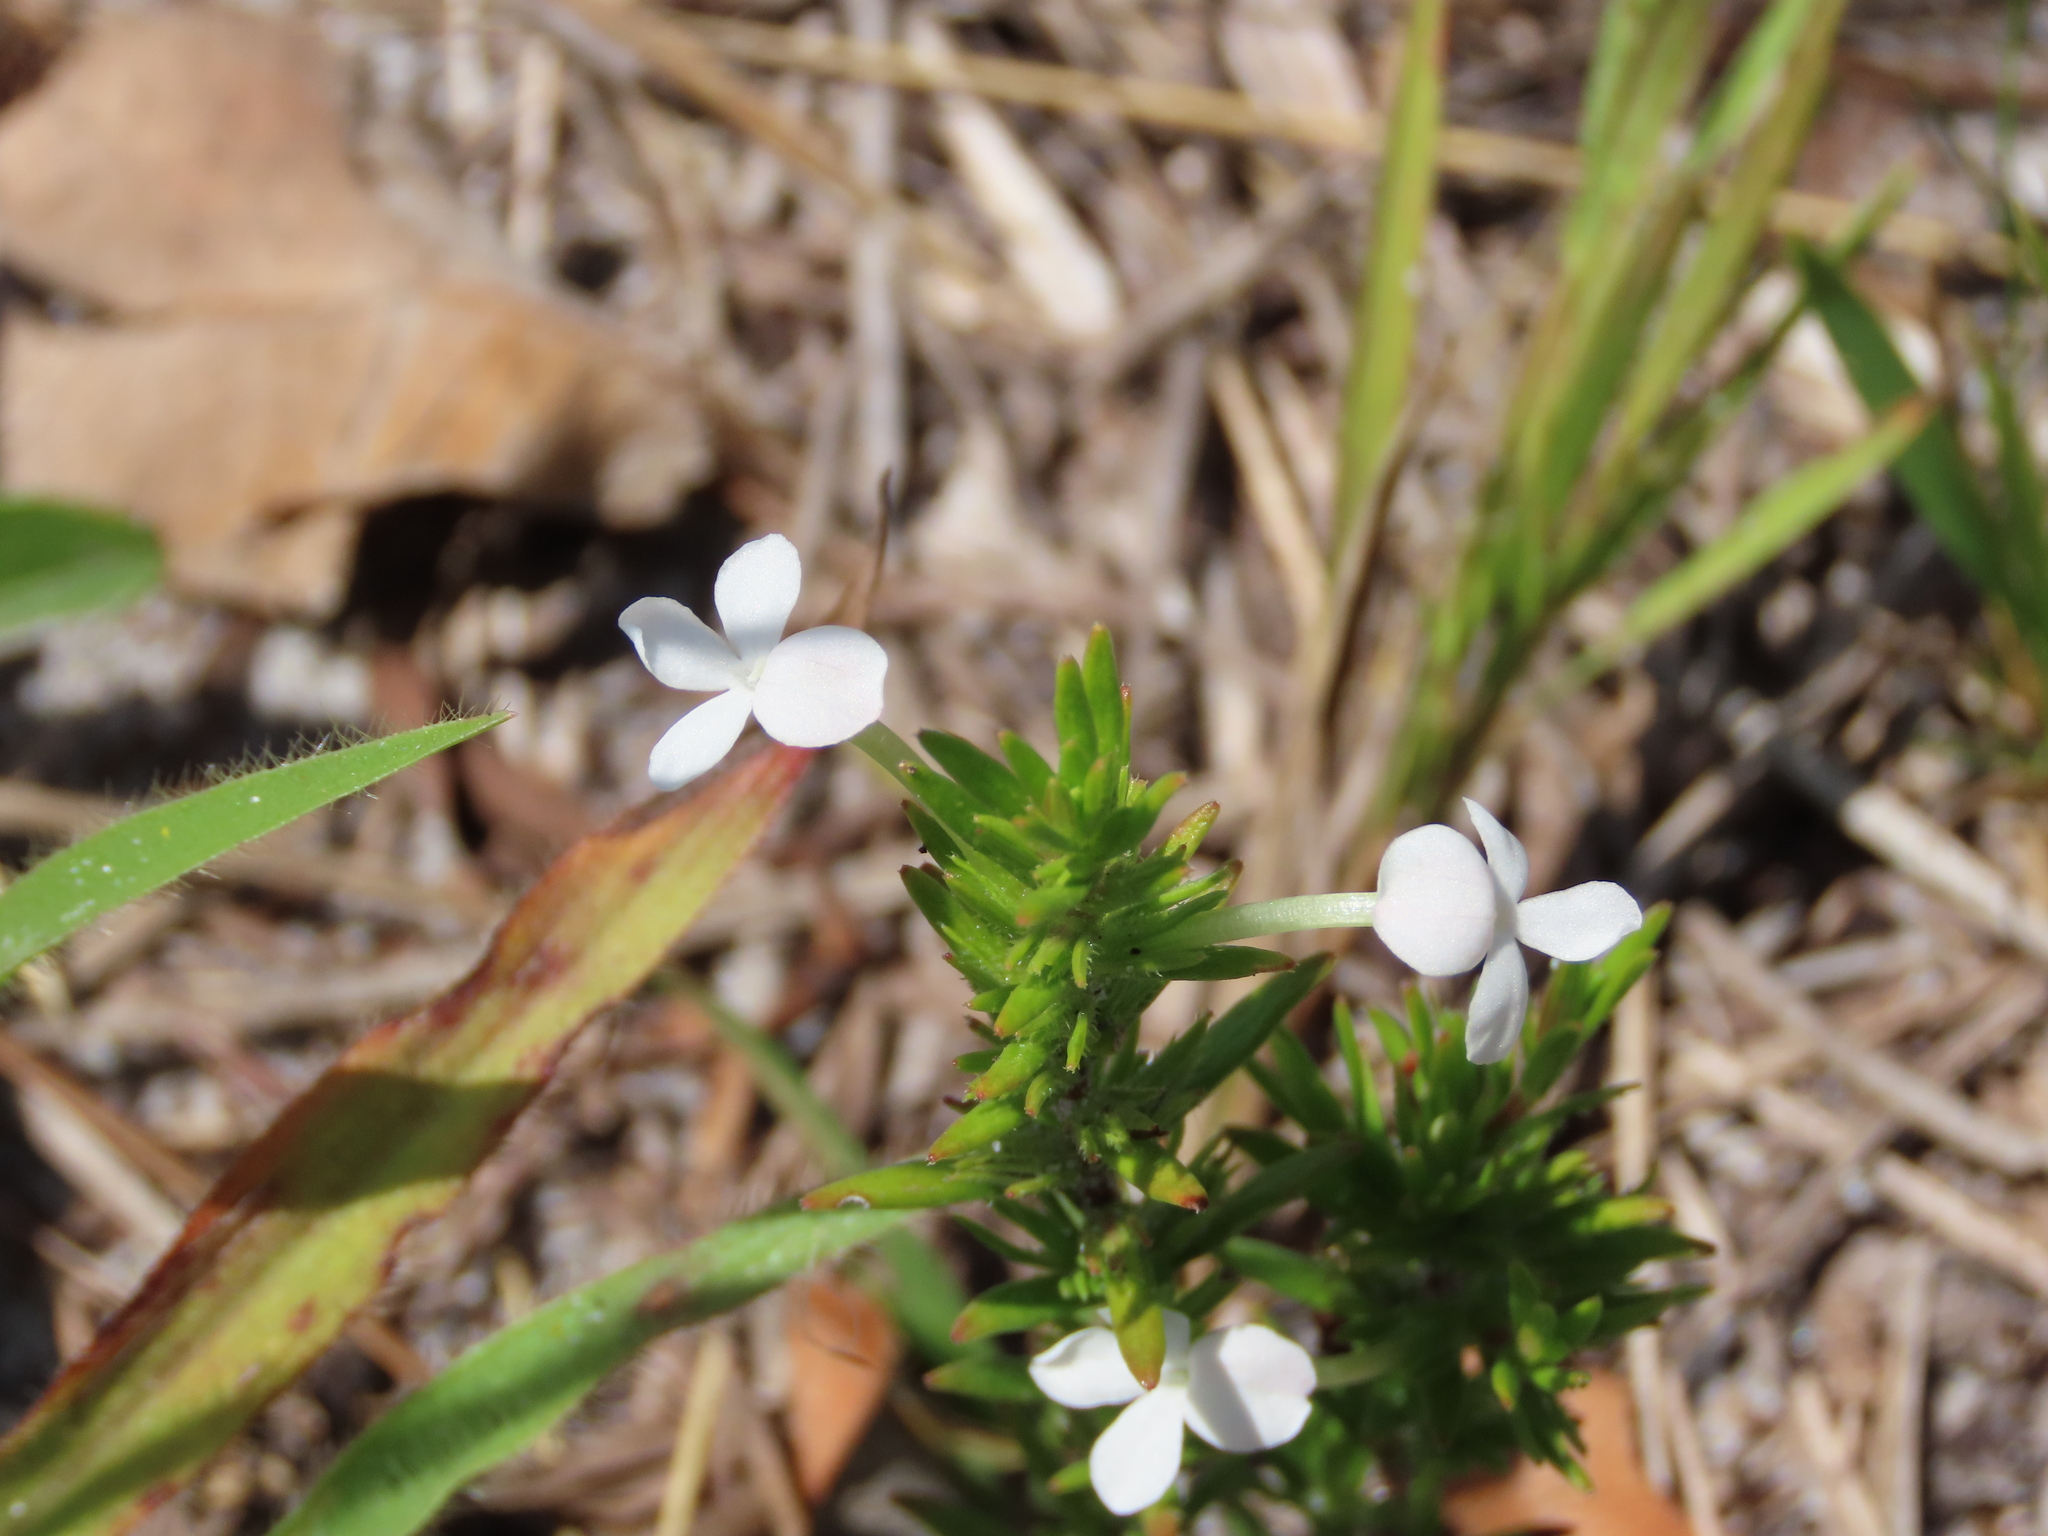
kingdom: Plantae
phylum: Tracheophyta
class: Magnoliopsida
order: Lamiales
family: Plantaginaceae
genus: Gratiola
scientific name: Gratiola hispida
